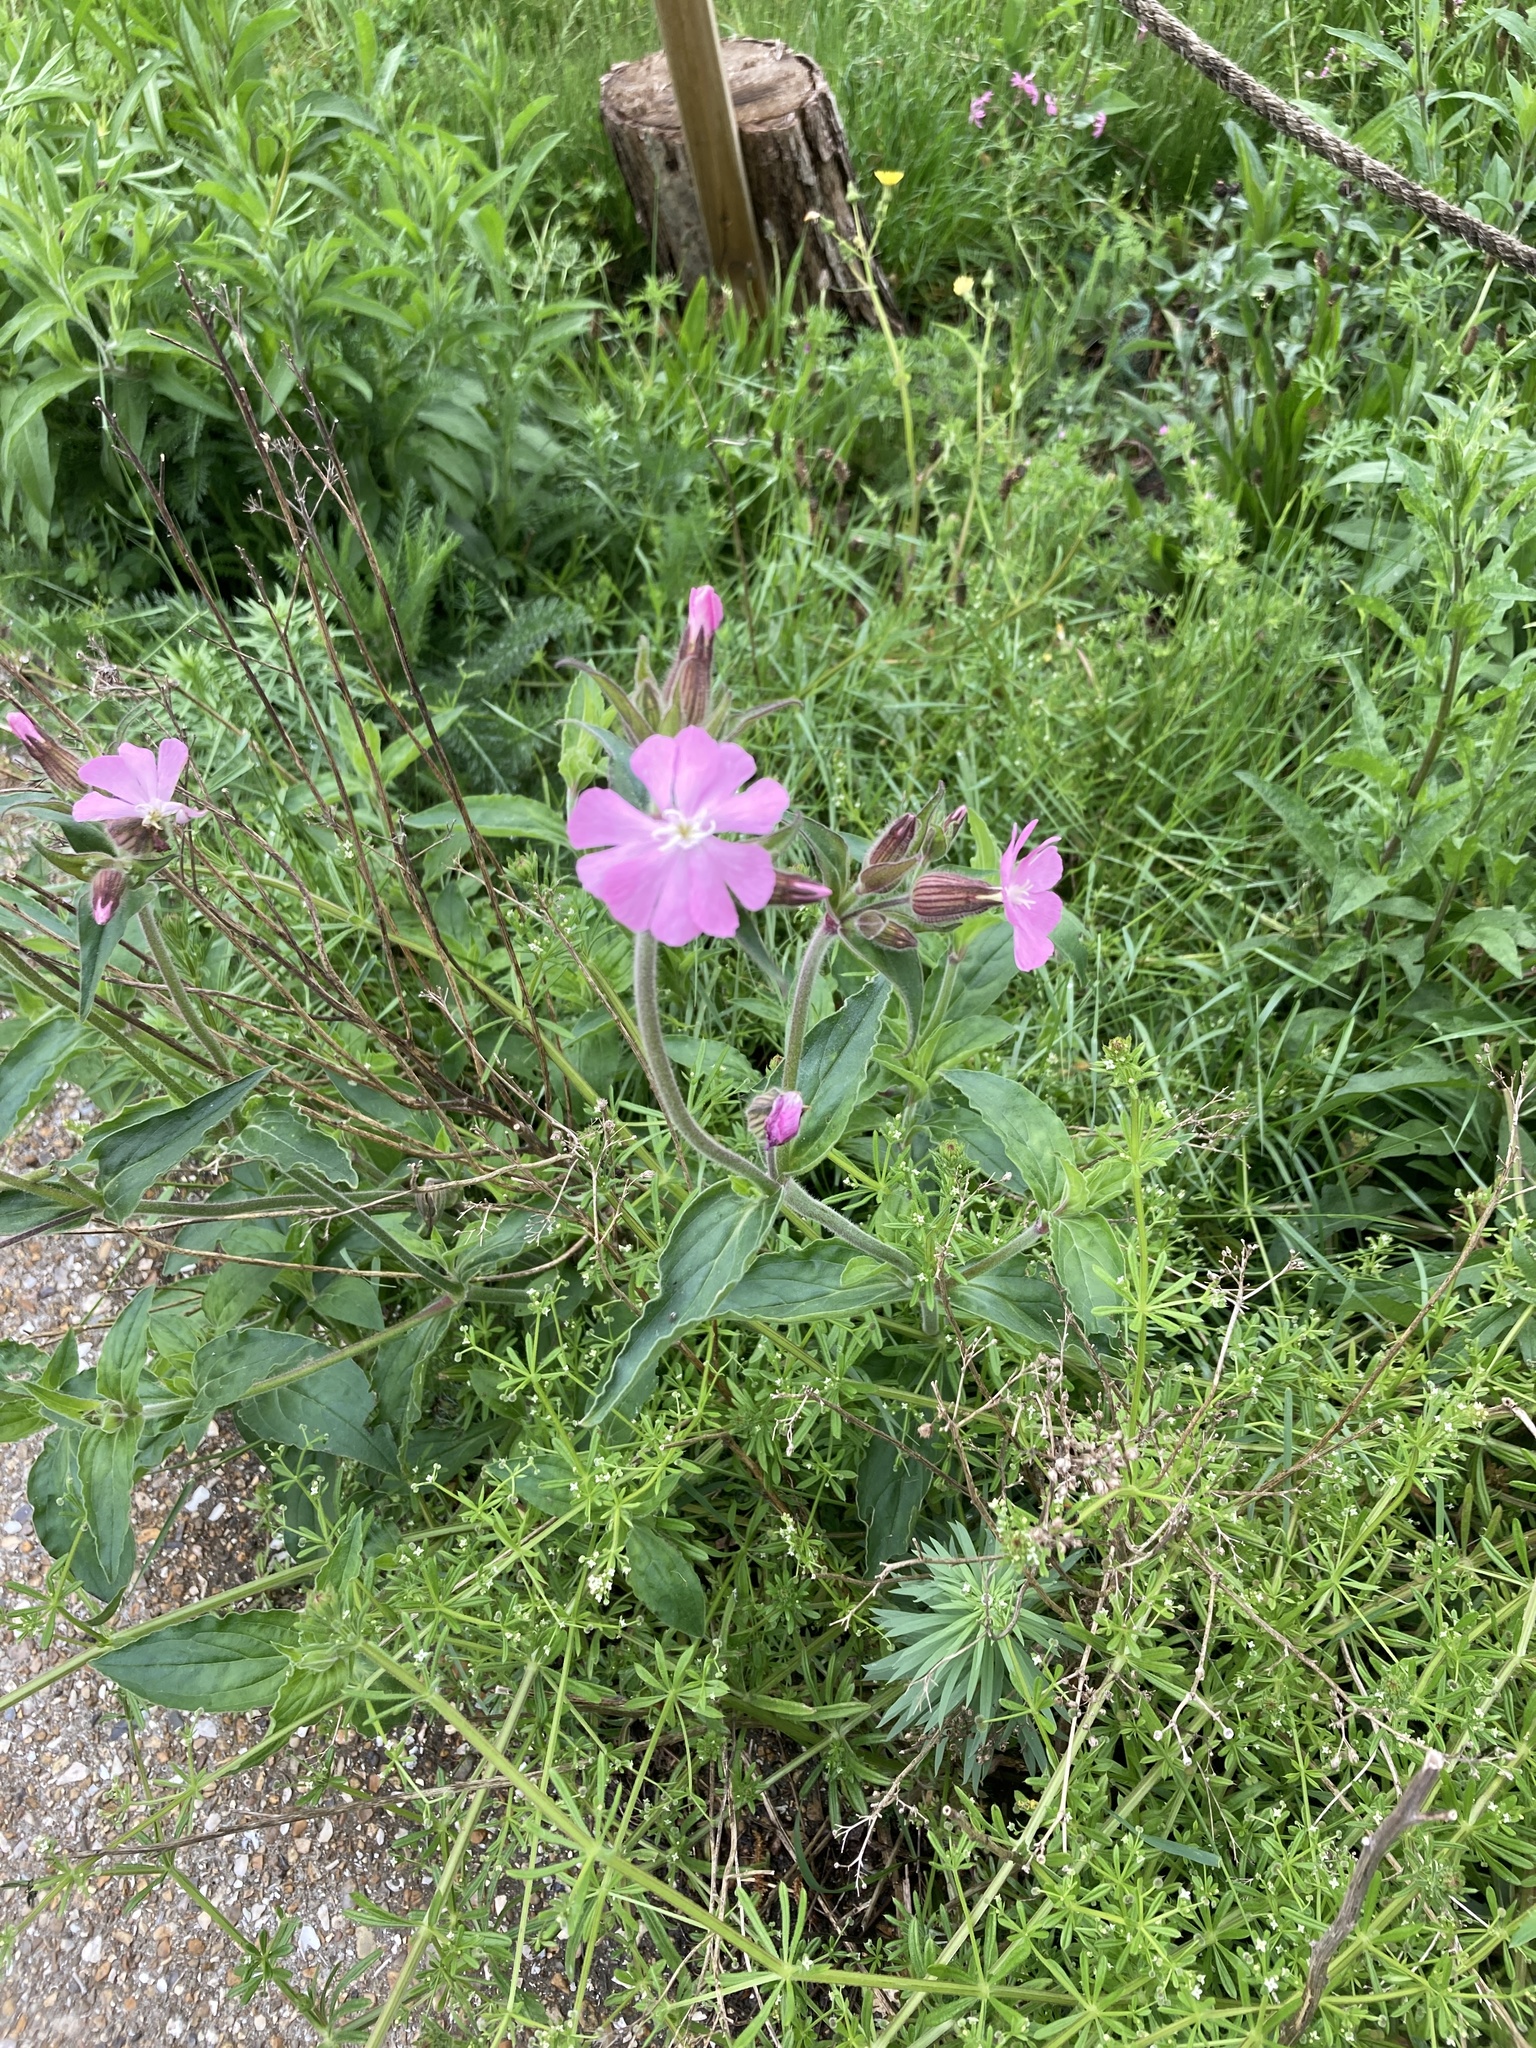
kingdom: Plantae
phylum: Tracheophyta
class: Magnoliopsida
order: Caryophyllales
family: Caryophyllaceae
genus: Silene
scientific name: Silene dioica
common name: Red campion
